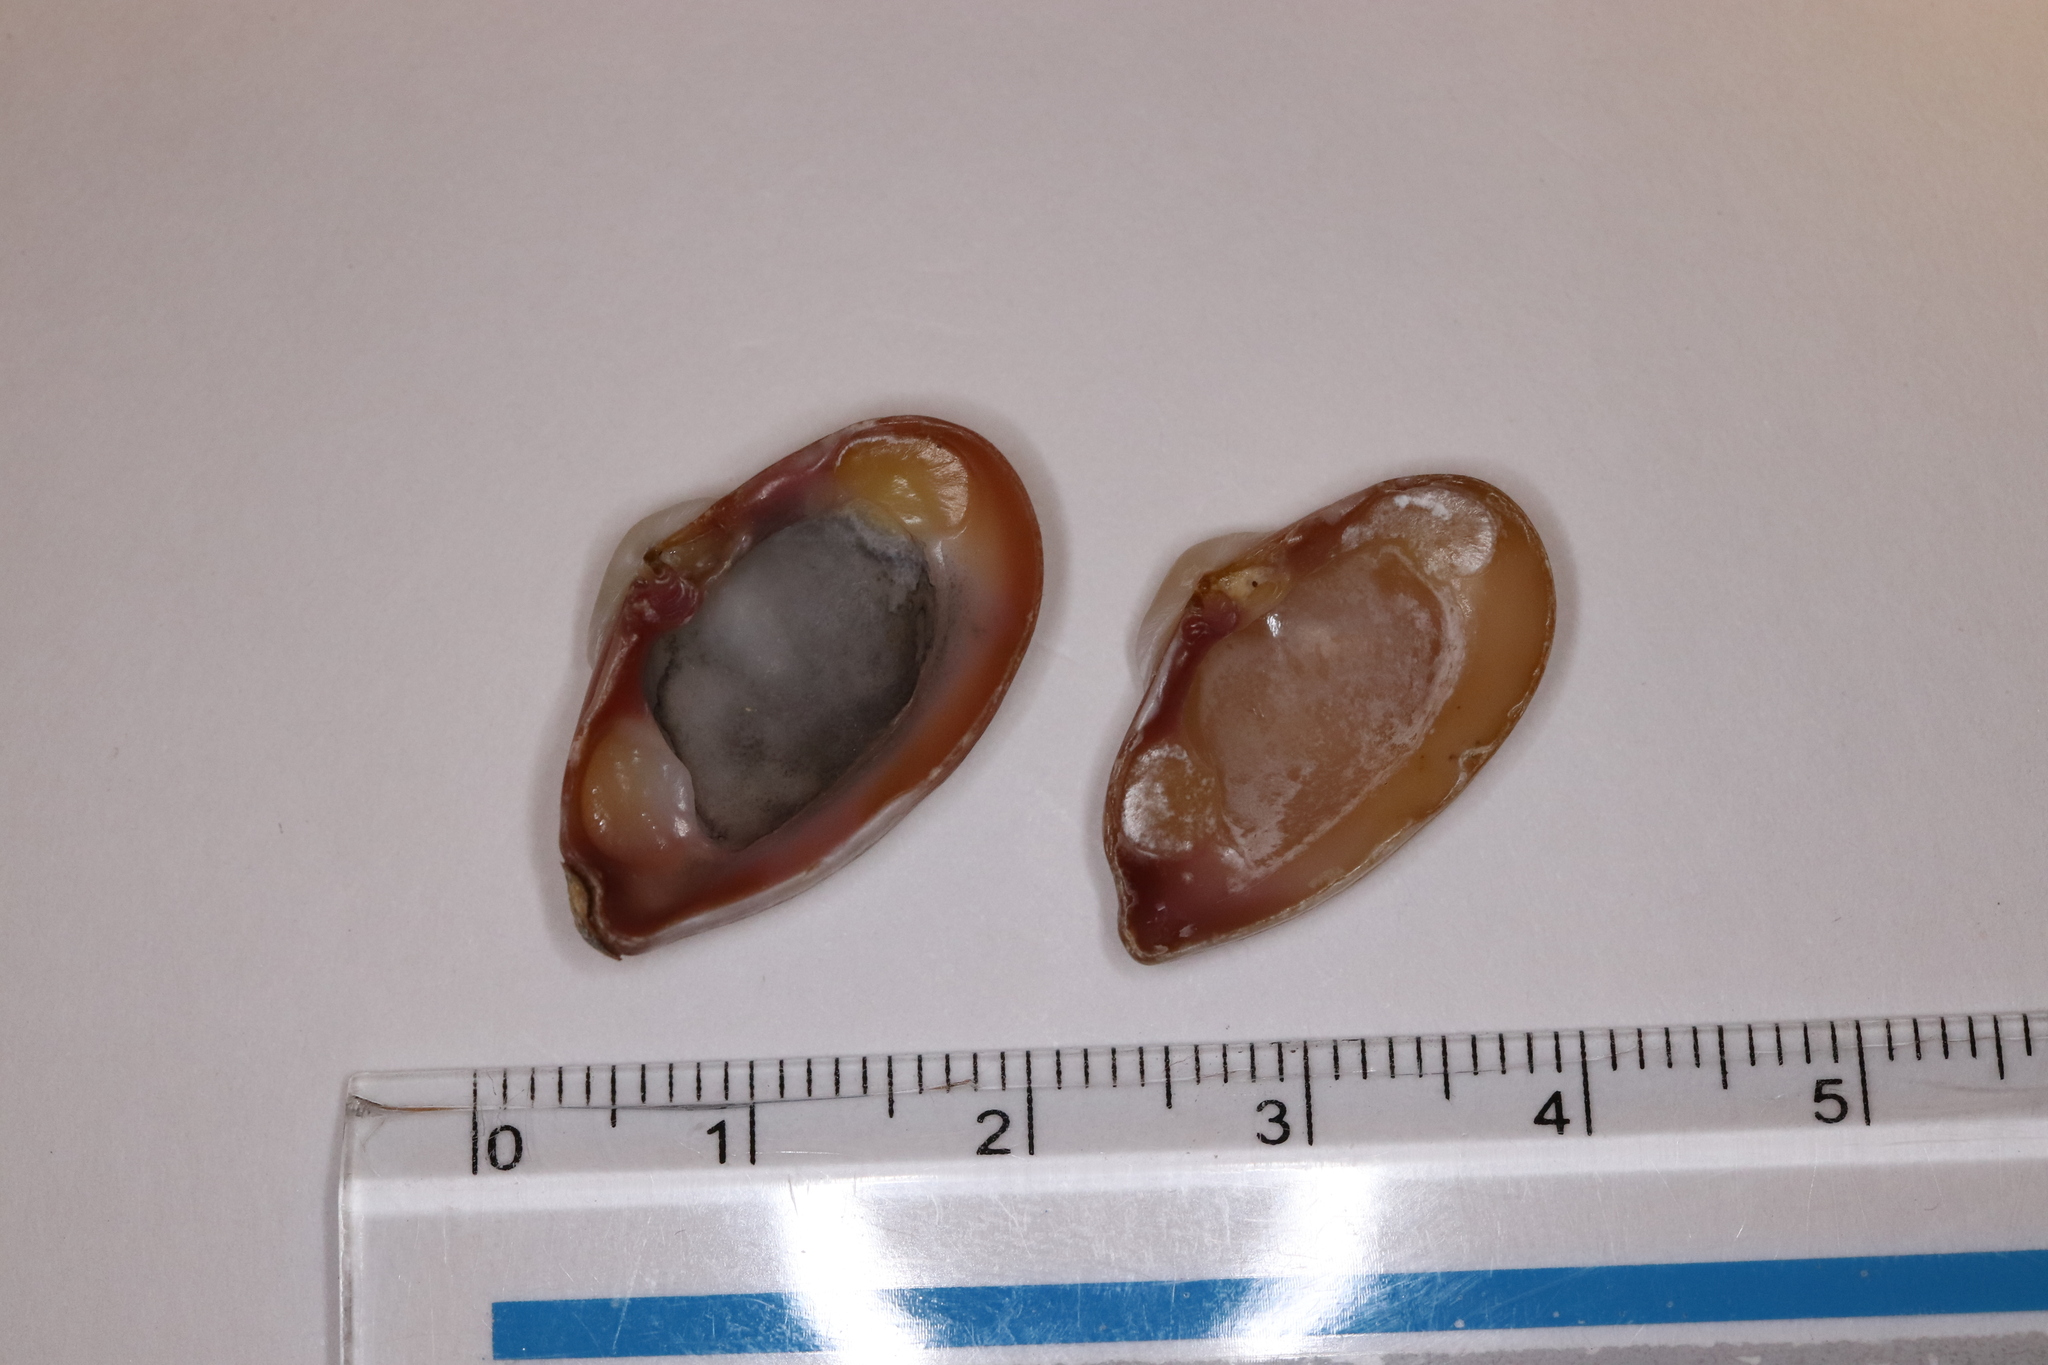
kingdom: Animalia
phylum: Mollusca
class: Bivalvia
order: Myida
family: Corbulidae
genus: Corbula
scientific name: Corbula erythrodon
